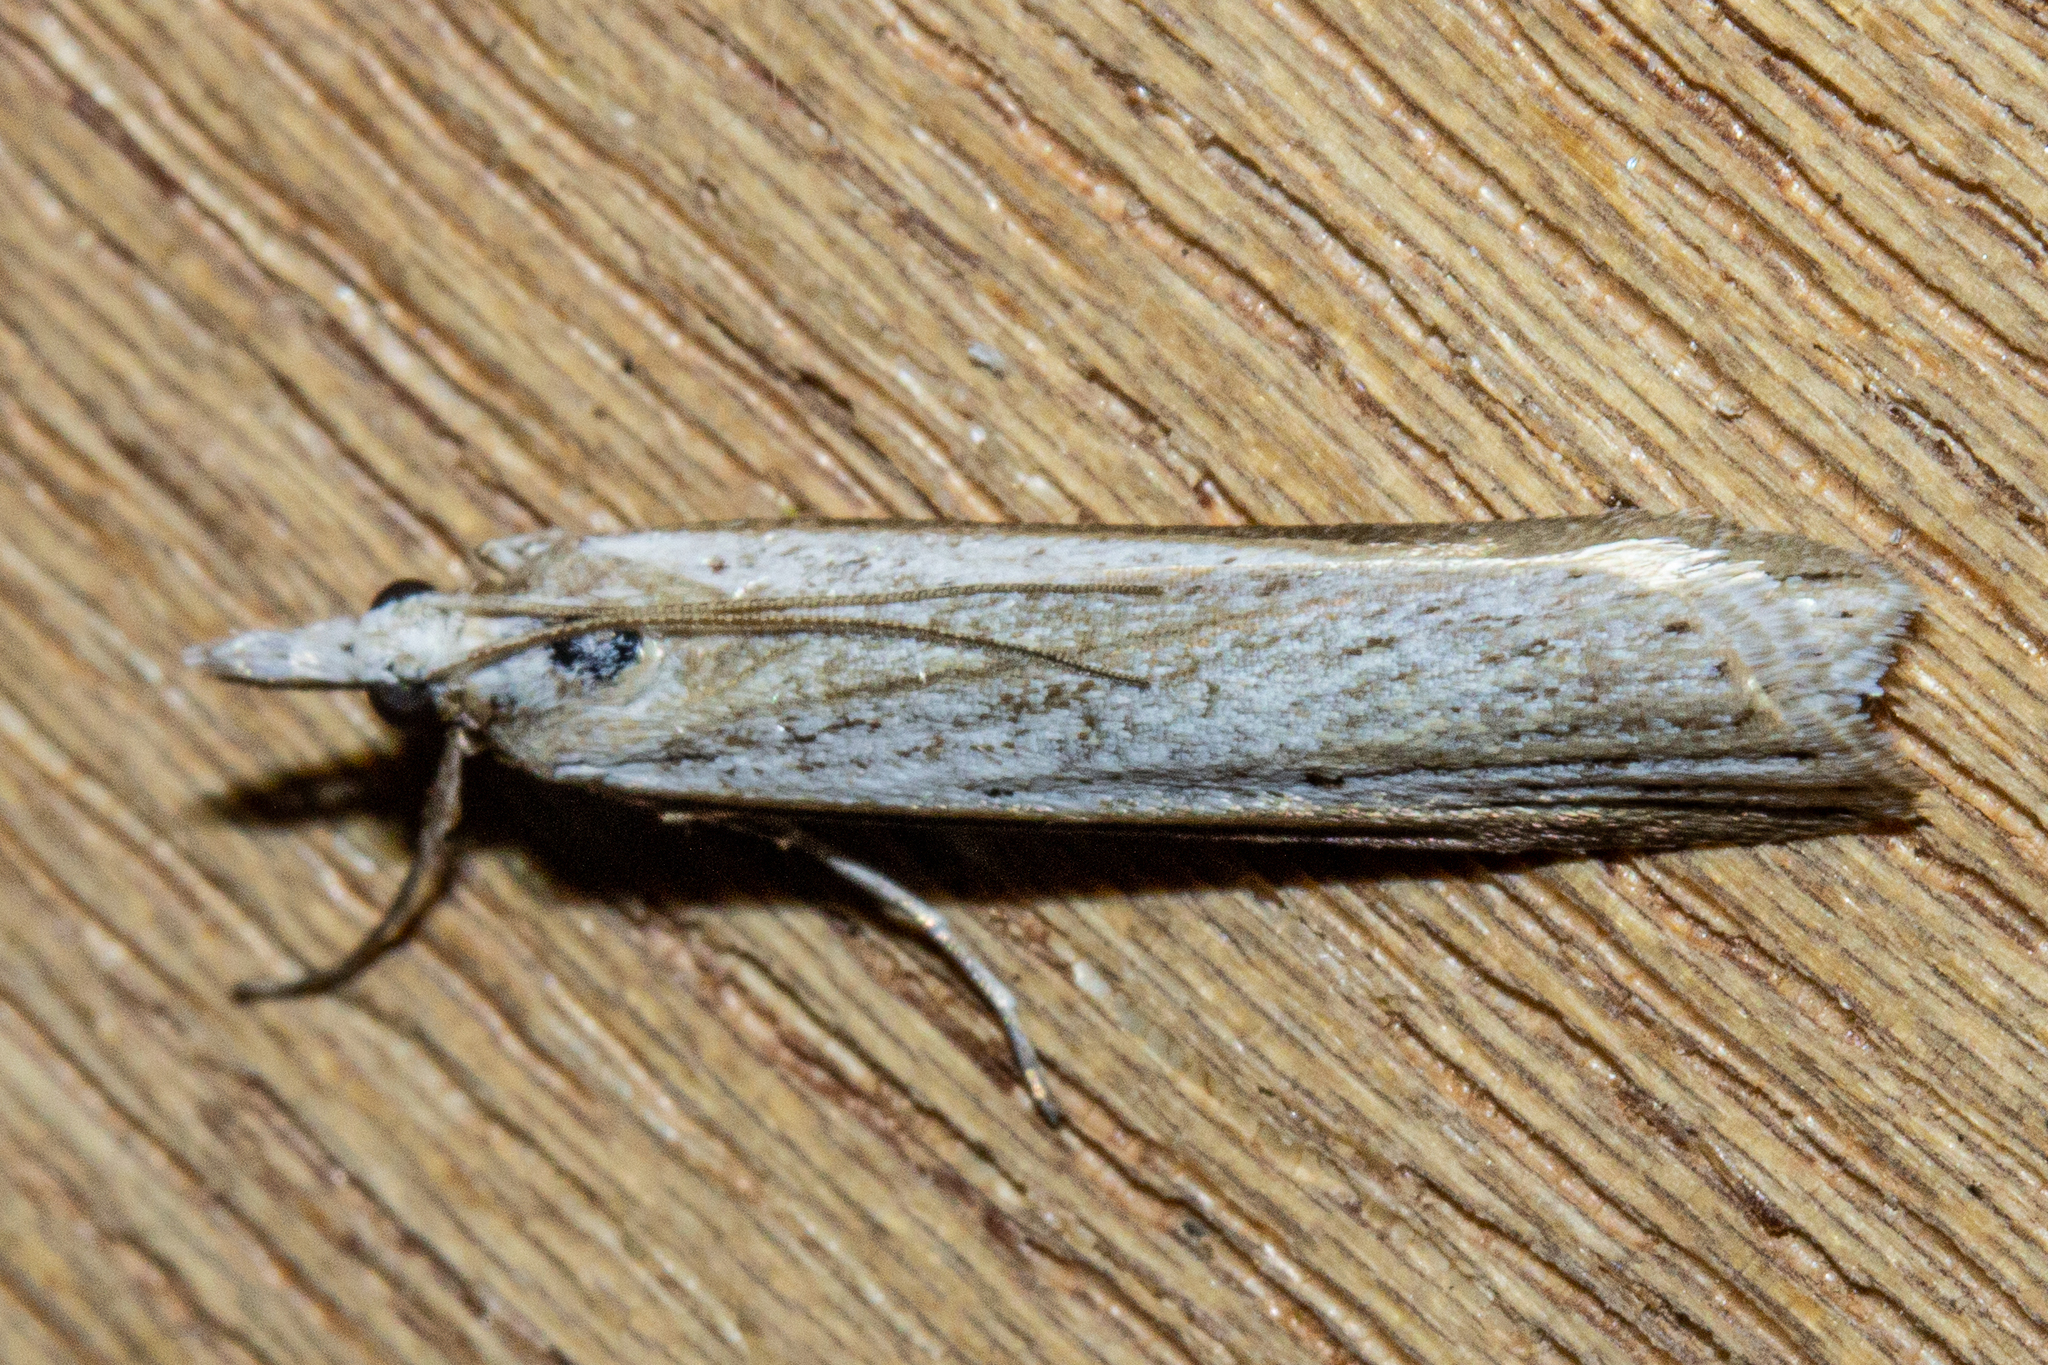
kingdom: Animalia
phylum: Arthropoda
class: Insecta
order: Lepidoptera
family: Crambidae
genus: Scoparia
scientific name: Scoparia niphospora
